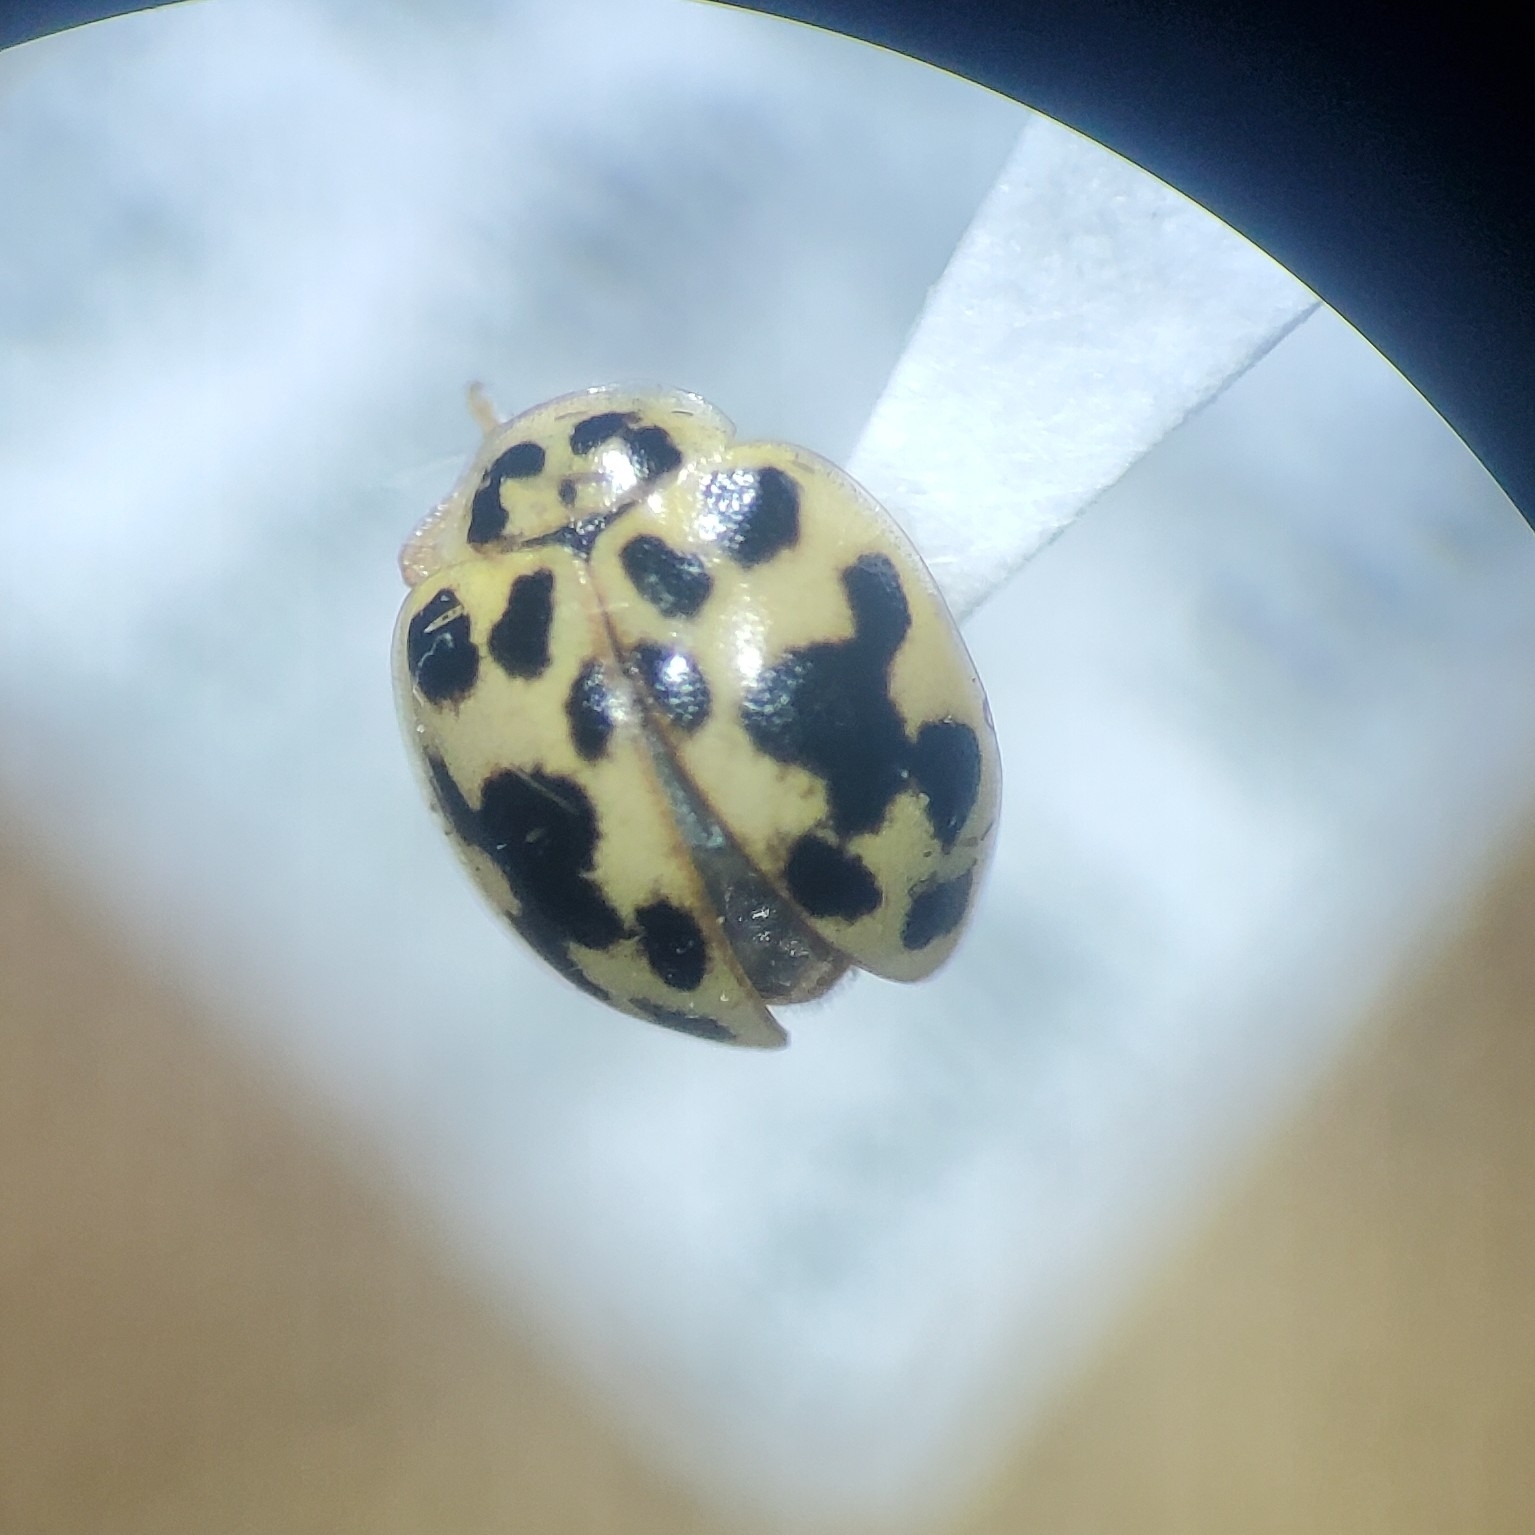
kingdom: Animalia
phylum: Arthropoda
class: Insecta
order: Coleoptera
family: Coccinellidae
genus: Psyllobora
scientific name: Psyllobora vigintimaculata
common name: Ladybird beetle
